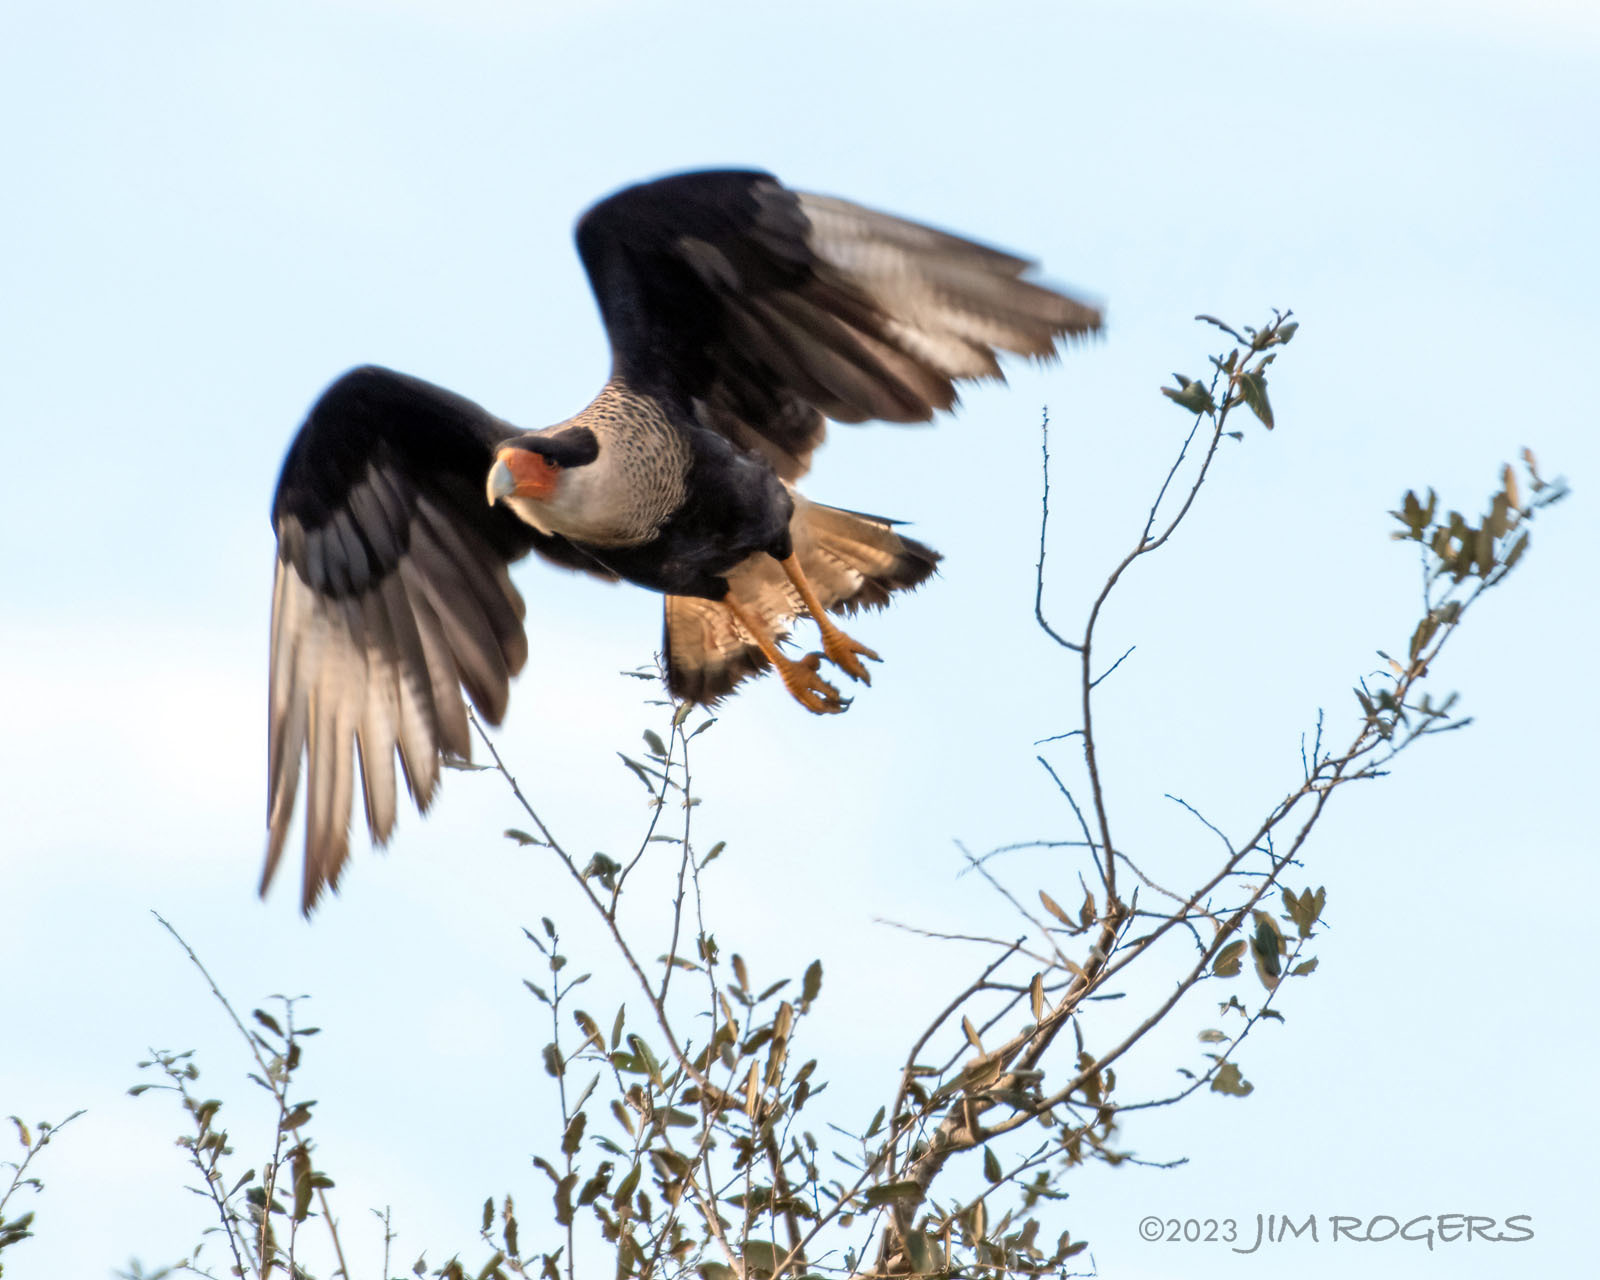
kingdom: Animalia
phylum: Chordata
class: Aves
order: Falconiformes
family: Falconidae
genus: Caracara
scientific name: Caracara plancus
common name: Southern caracara
